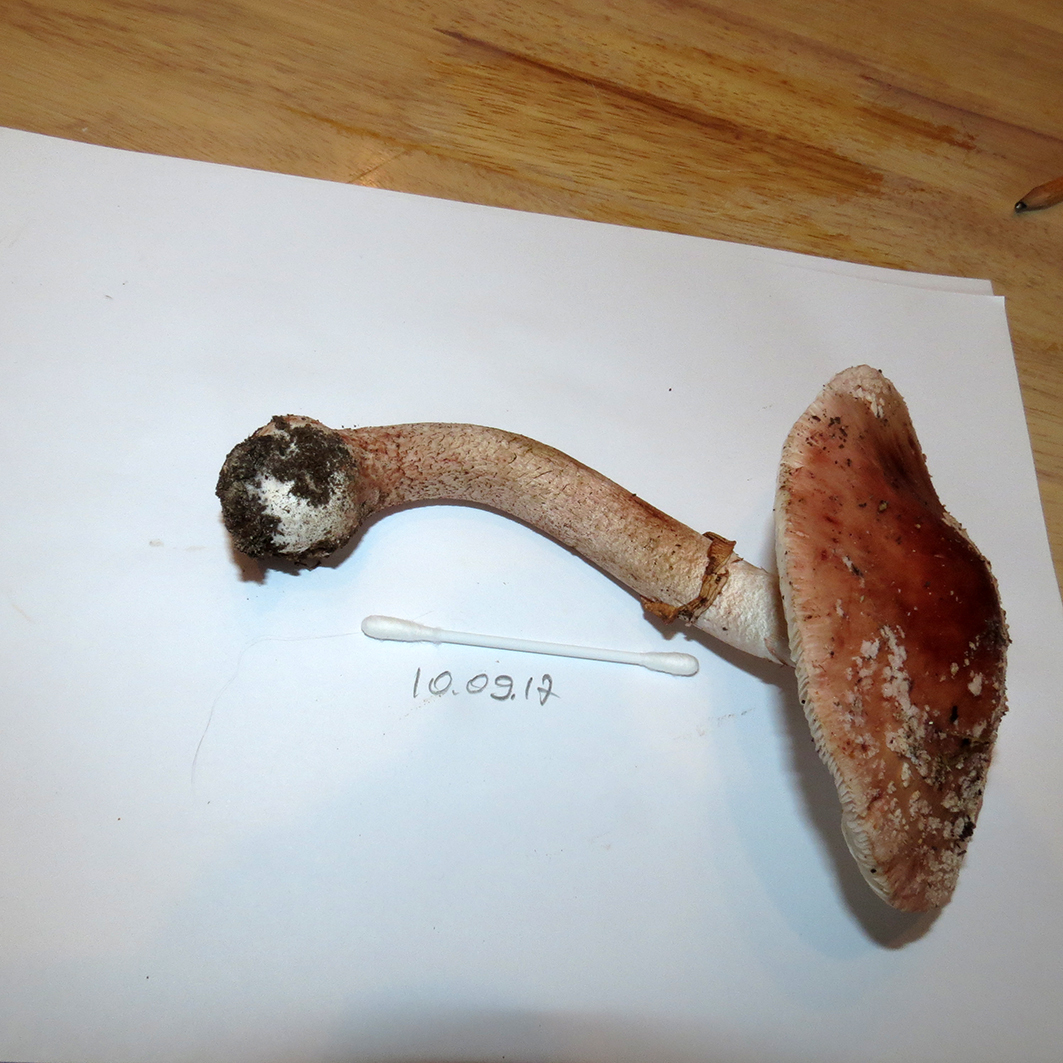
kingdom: Fungi
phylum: Basidiomycota
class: Agaricomycetes
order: Agaricales
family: Amanitaceae
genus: Amanita
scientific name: Amanita rubescens
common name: Blusher
